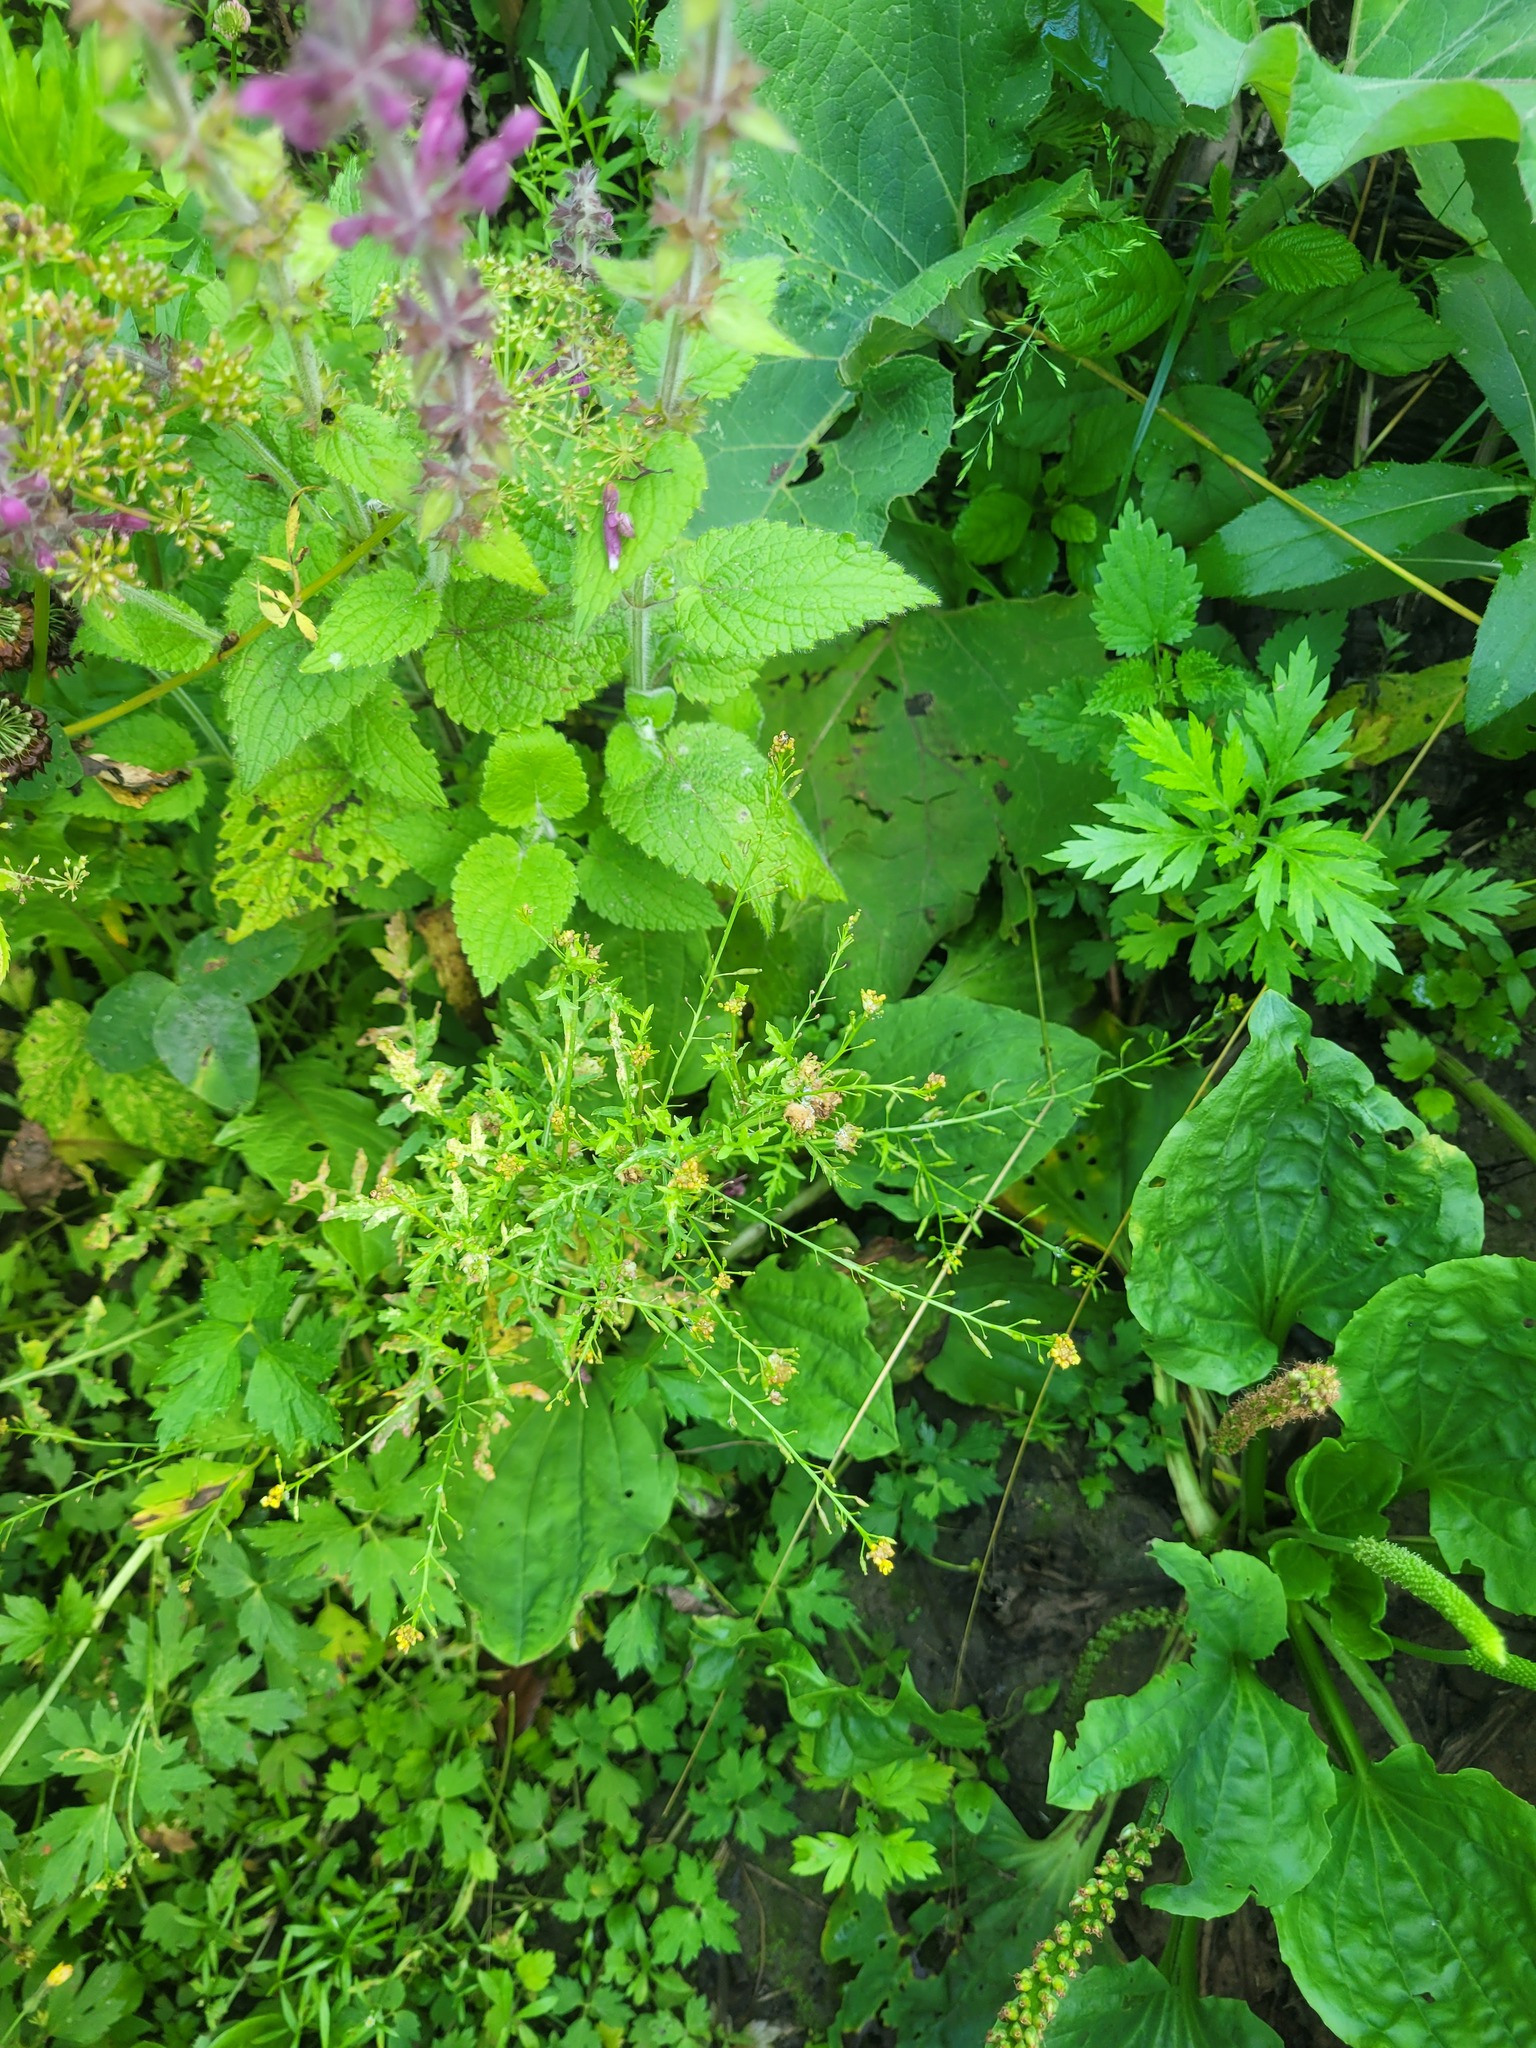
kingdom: Plantae
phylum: Tracheophyta
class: Magnoliopsida
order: Brassicales
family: Brassicaceae
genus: Rorippa
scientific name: Rorippa palustris
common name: Marsh yellow-cress
